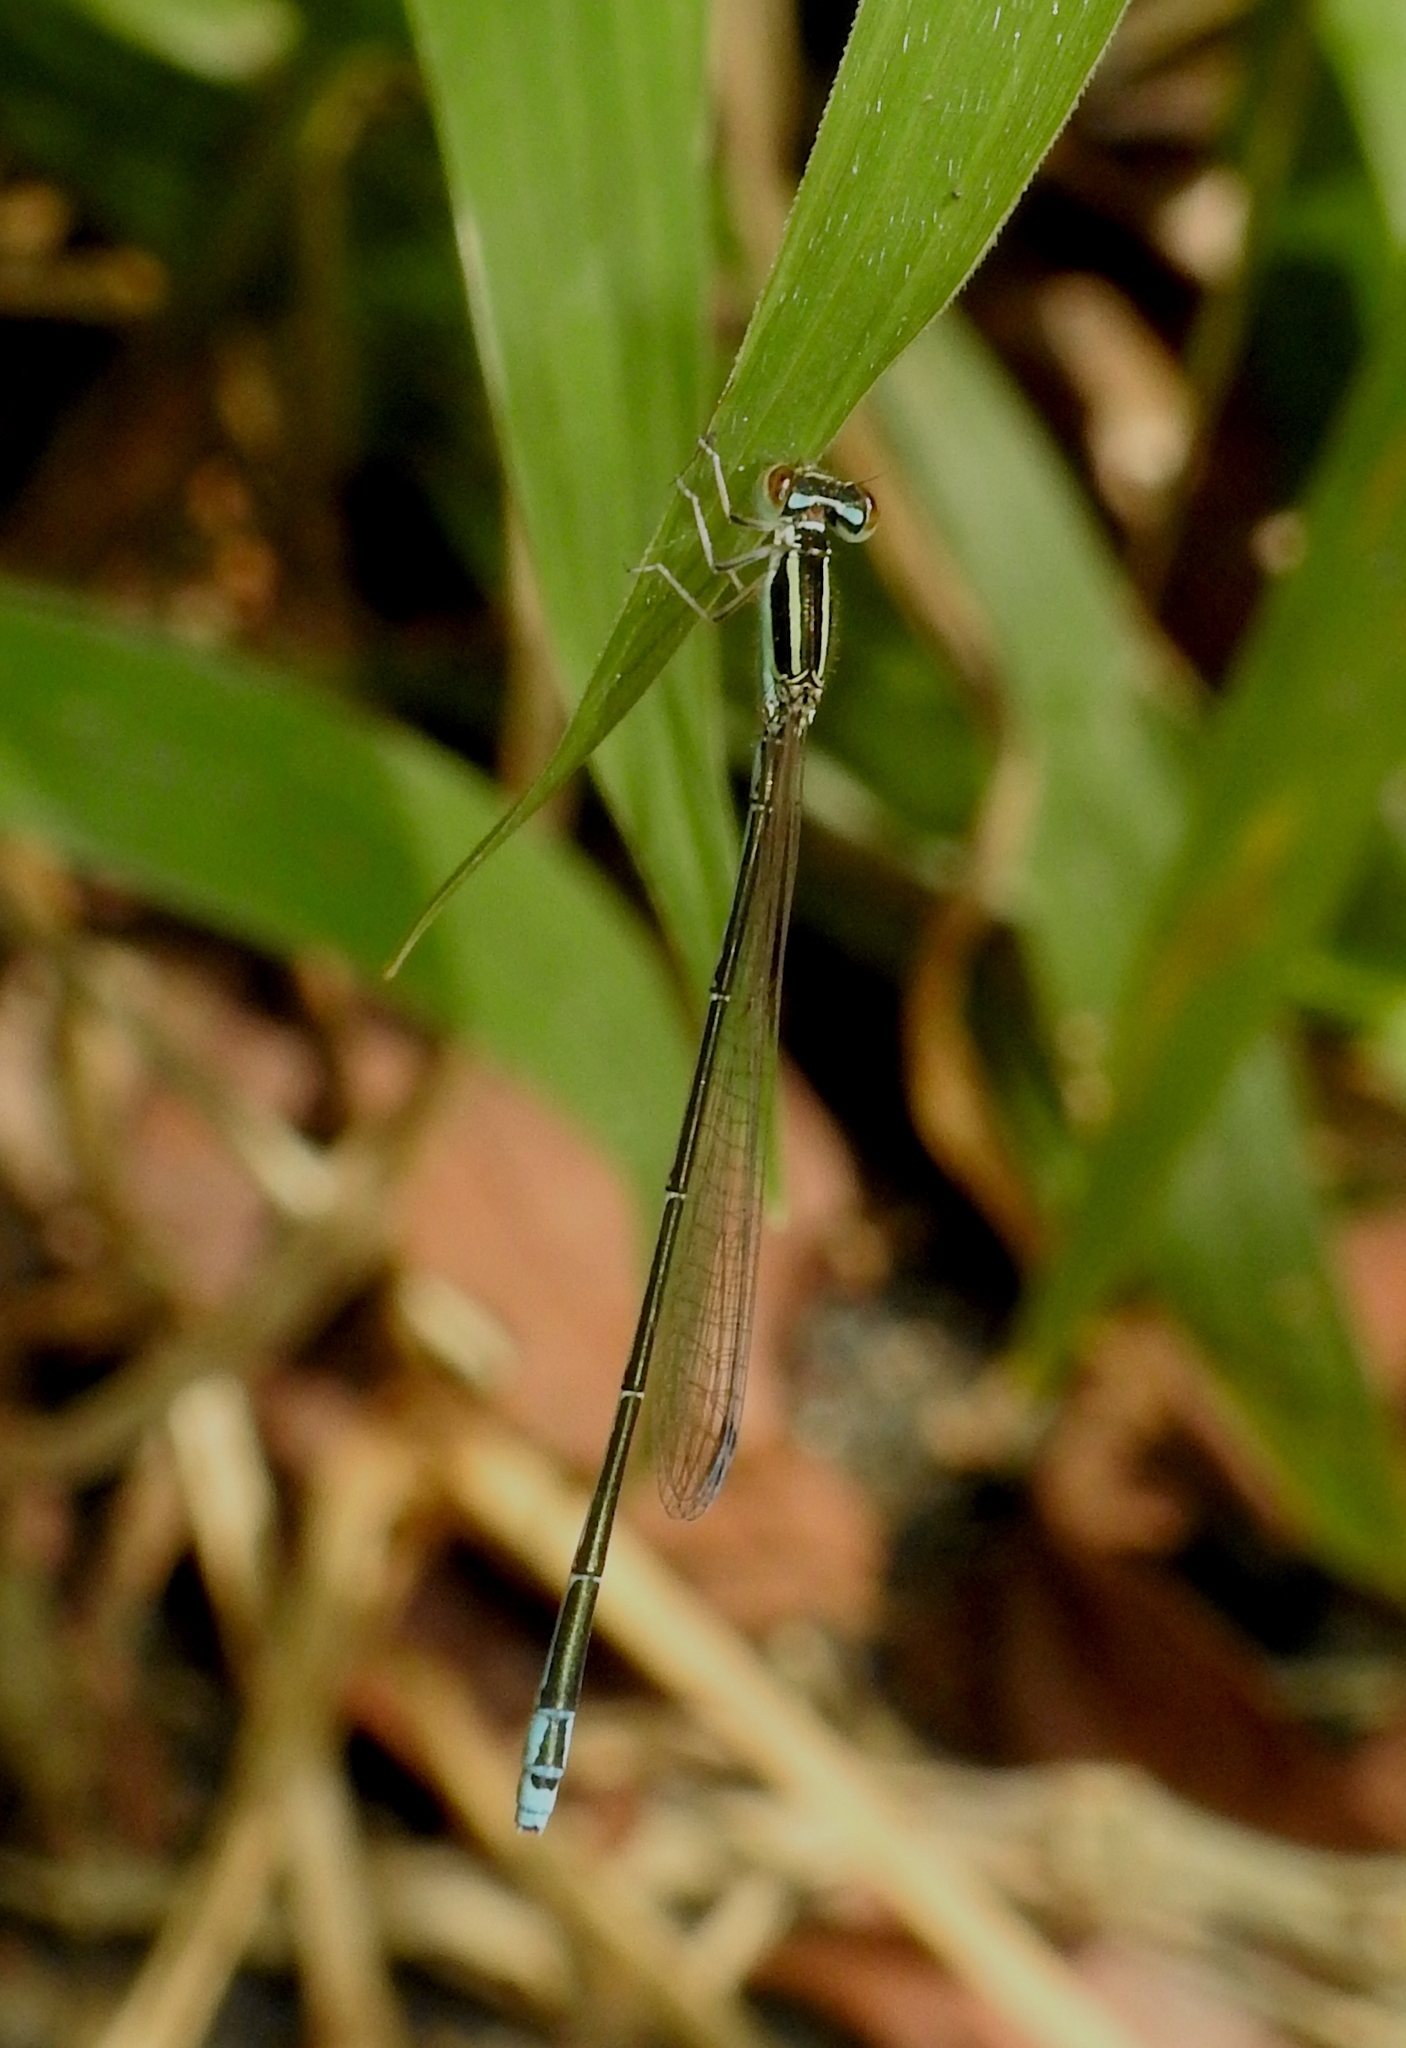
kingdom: Animalia
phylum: Arthropoda
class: Insecta
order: Odonata
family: Coenagrionidae
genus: Aciagrion
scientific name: Aciagrion occidentale
